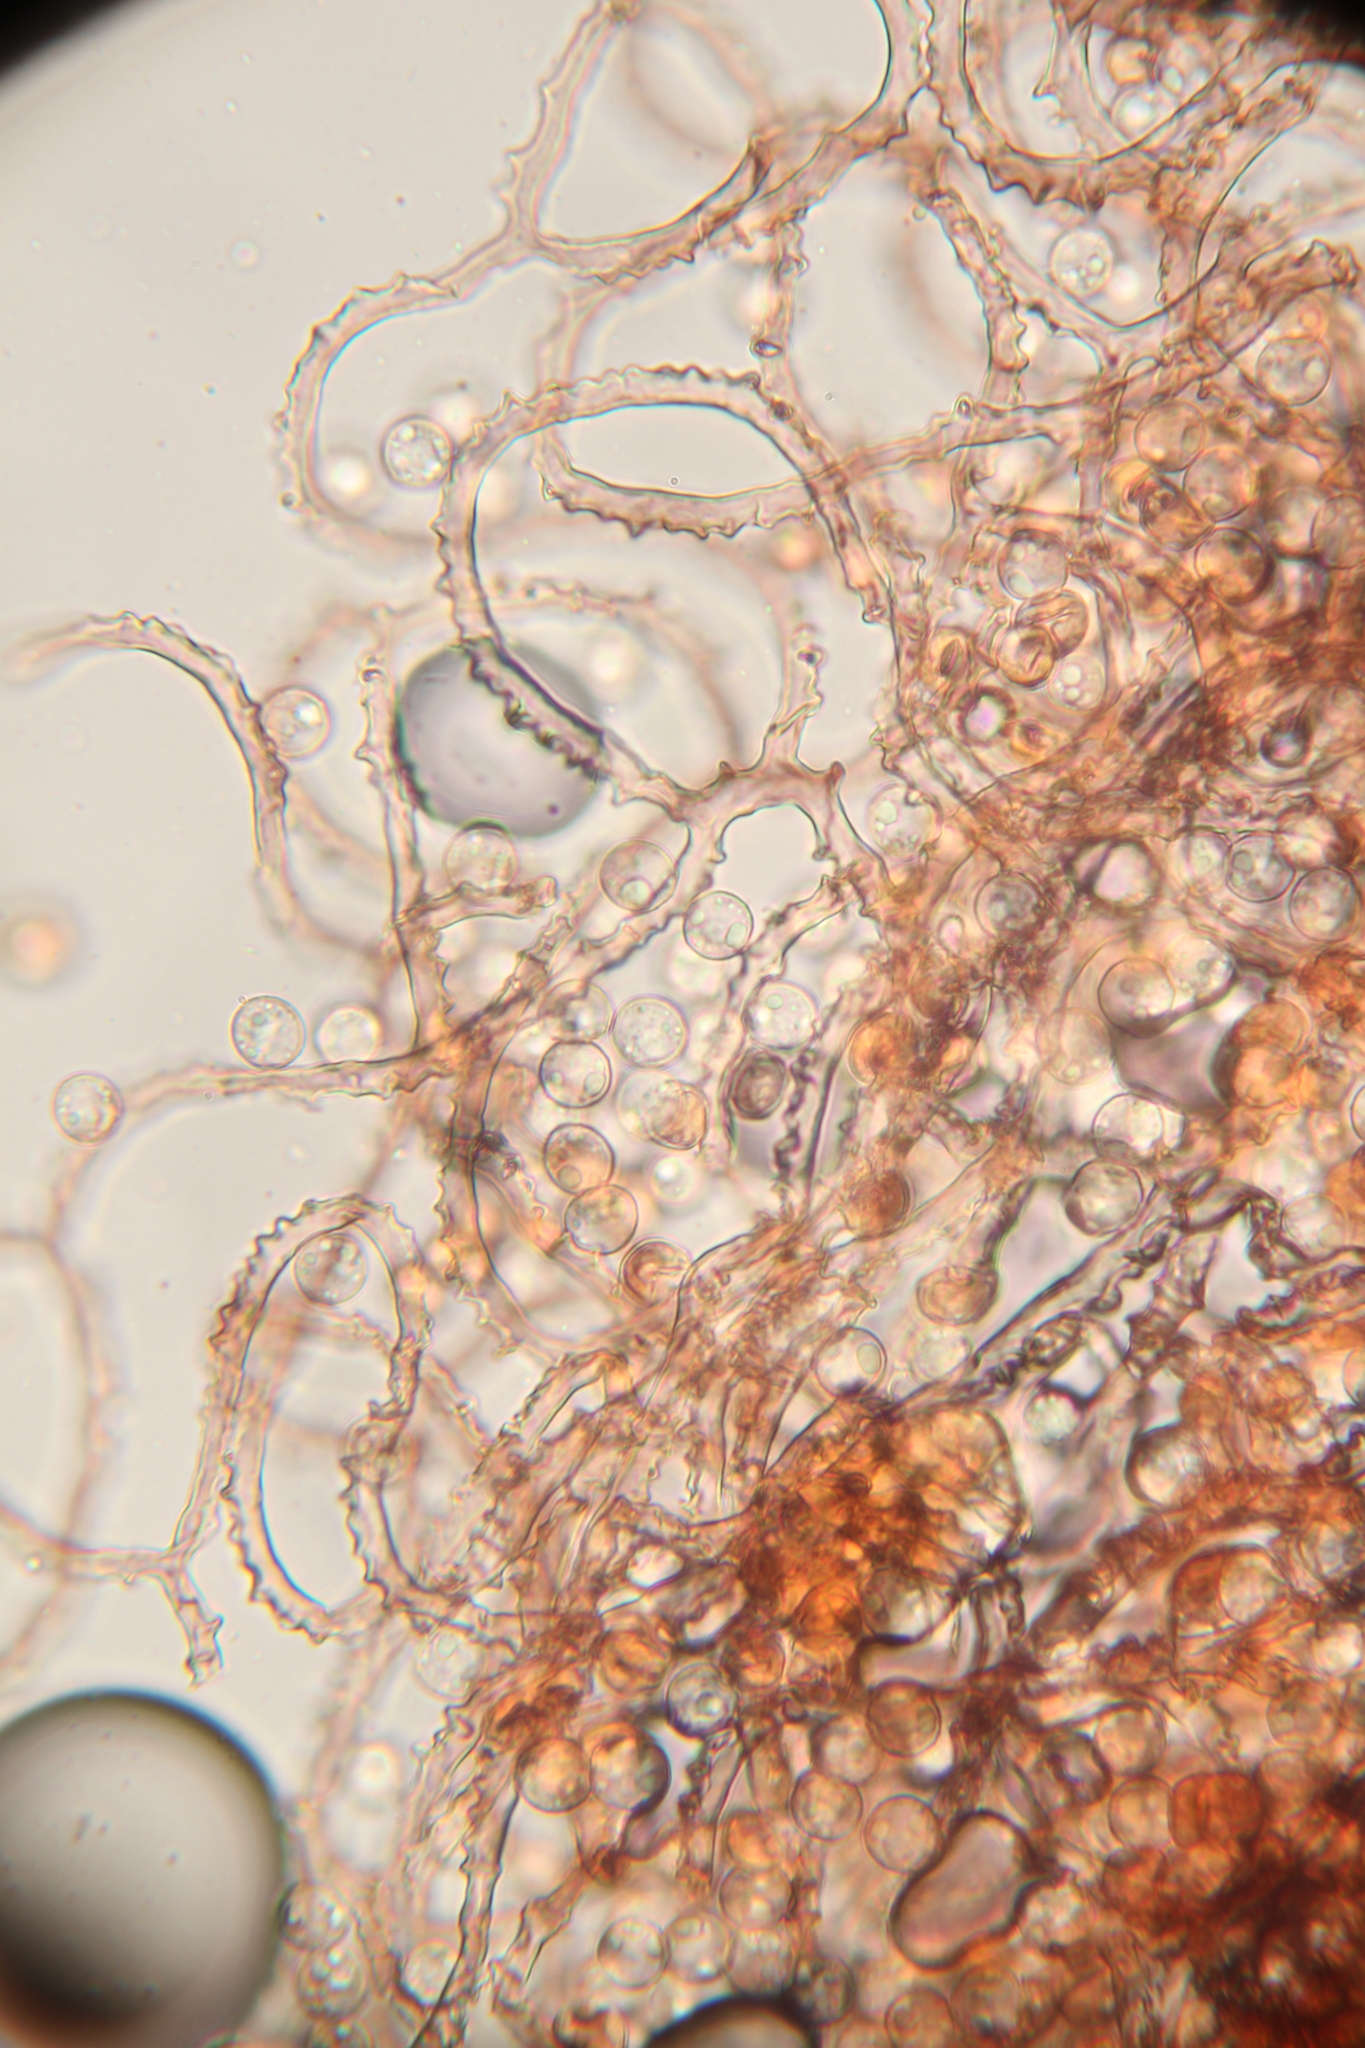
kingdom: Protozoa
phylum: Mycetozoa
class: Myxomycetes
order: Trichiales
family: Arcyriaceae
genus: Arcyria
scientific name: Arcyria denudata
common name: Carnival candy slime mold
